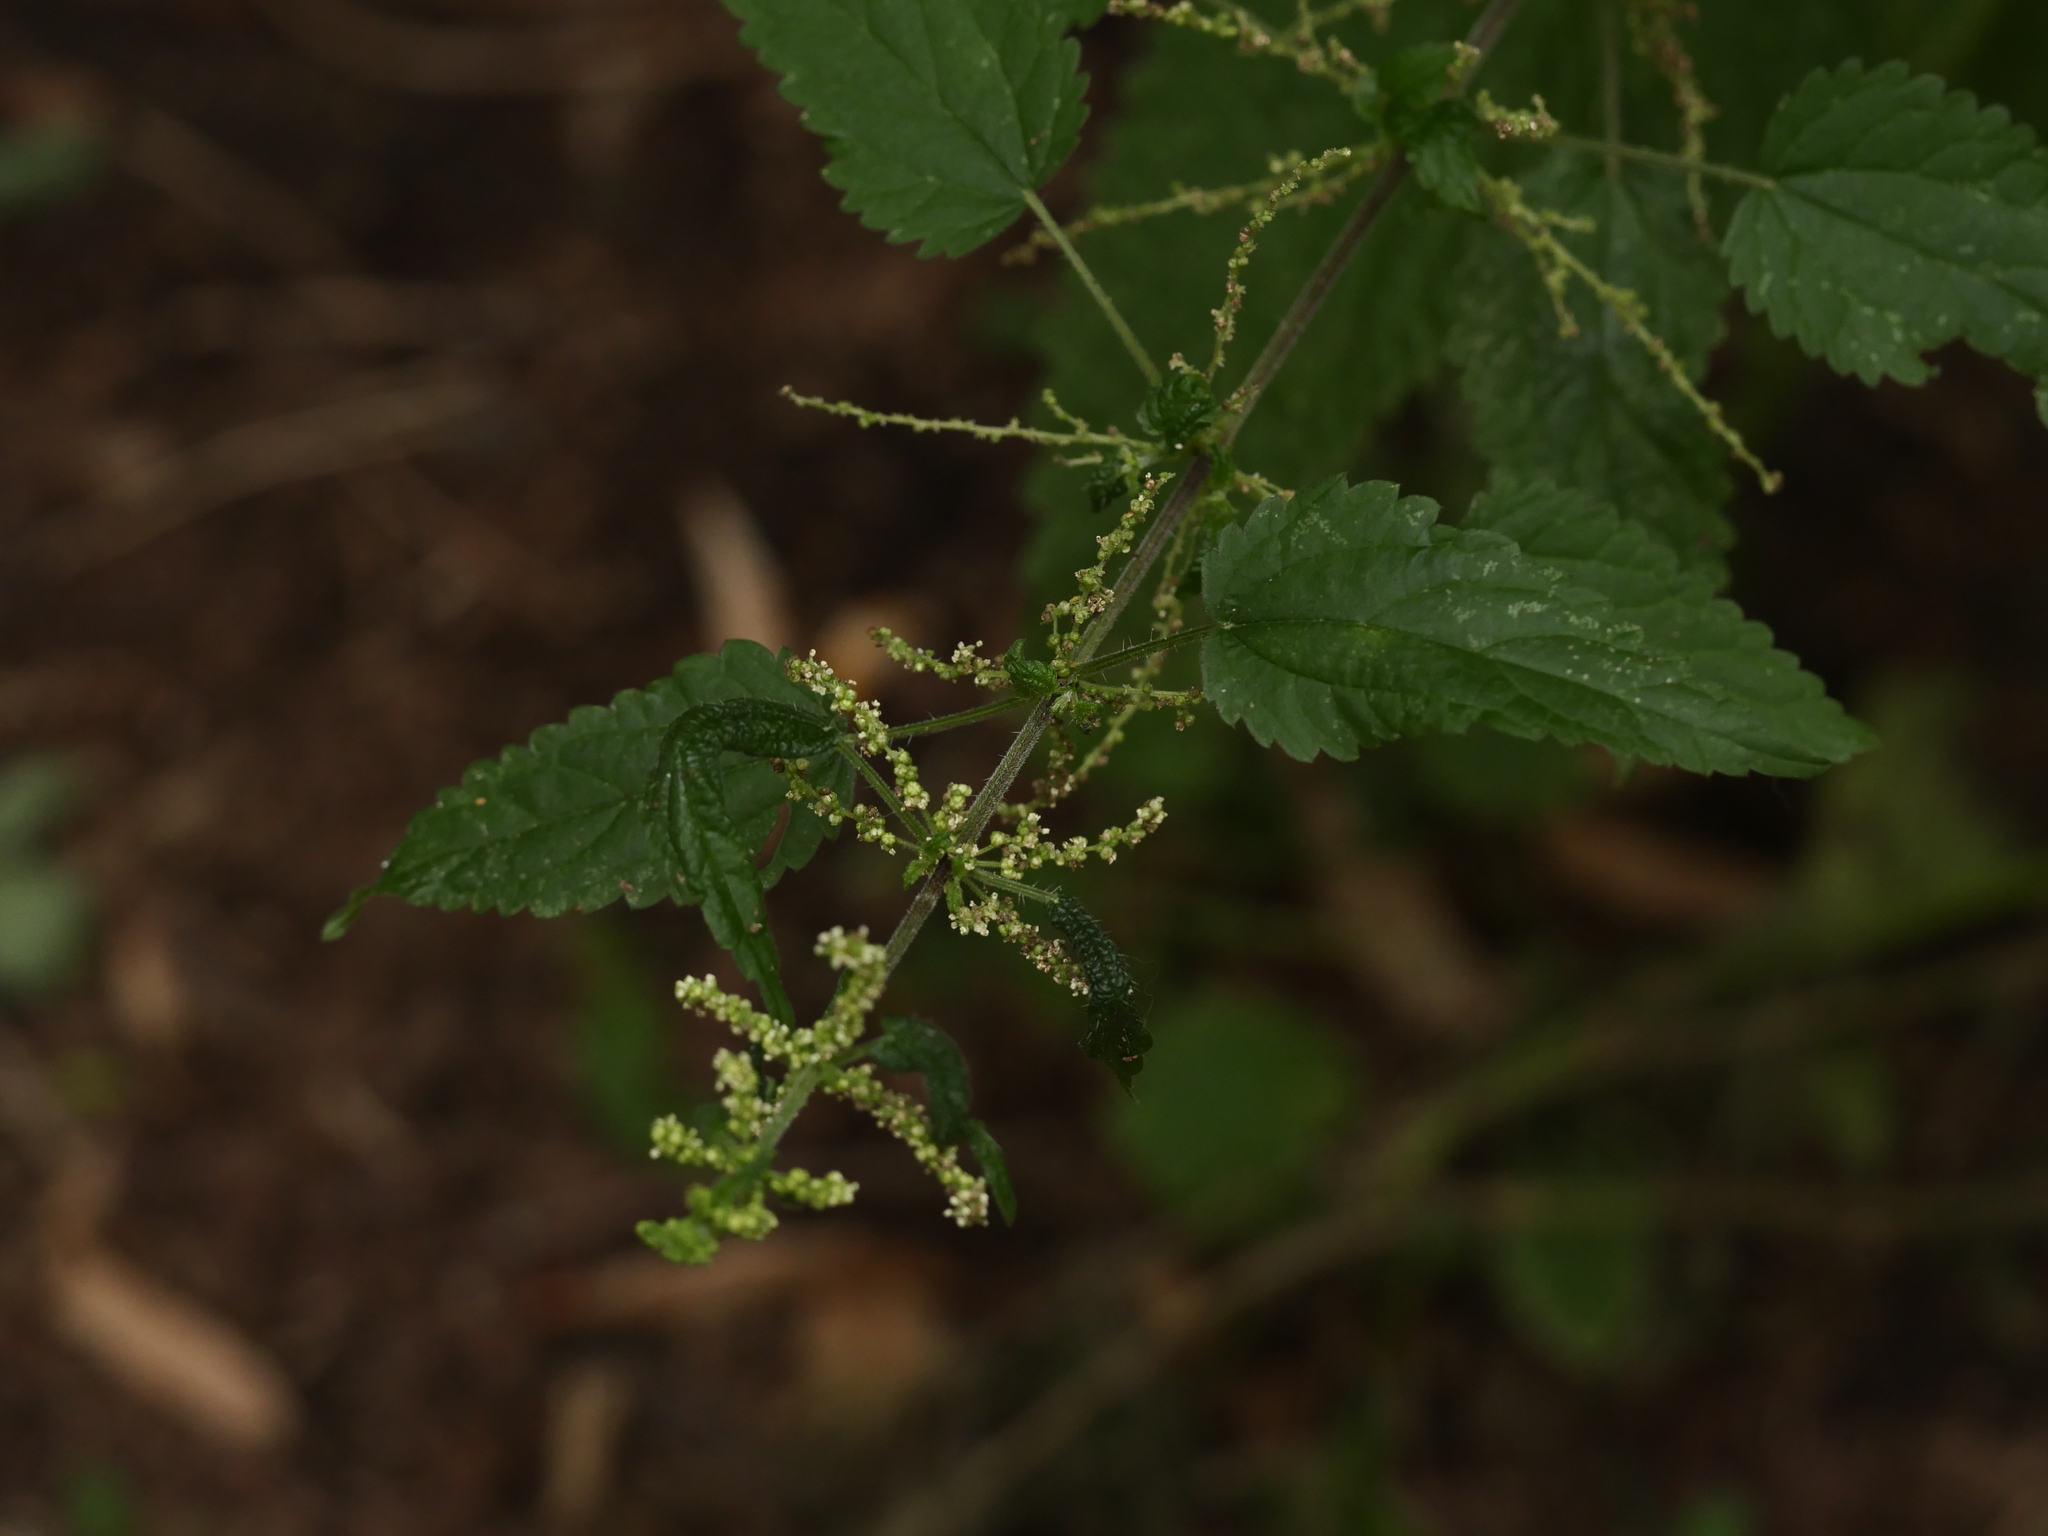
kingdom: Plantae
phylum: Tracheophyta
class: Magnoliopsida
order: Rosales
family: Urticaceae
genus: Urtica
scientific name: Urtica dioica
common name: Common nettle
